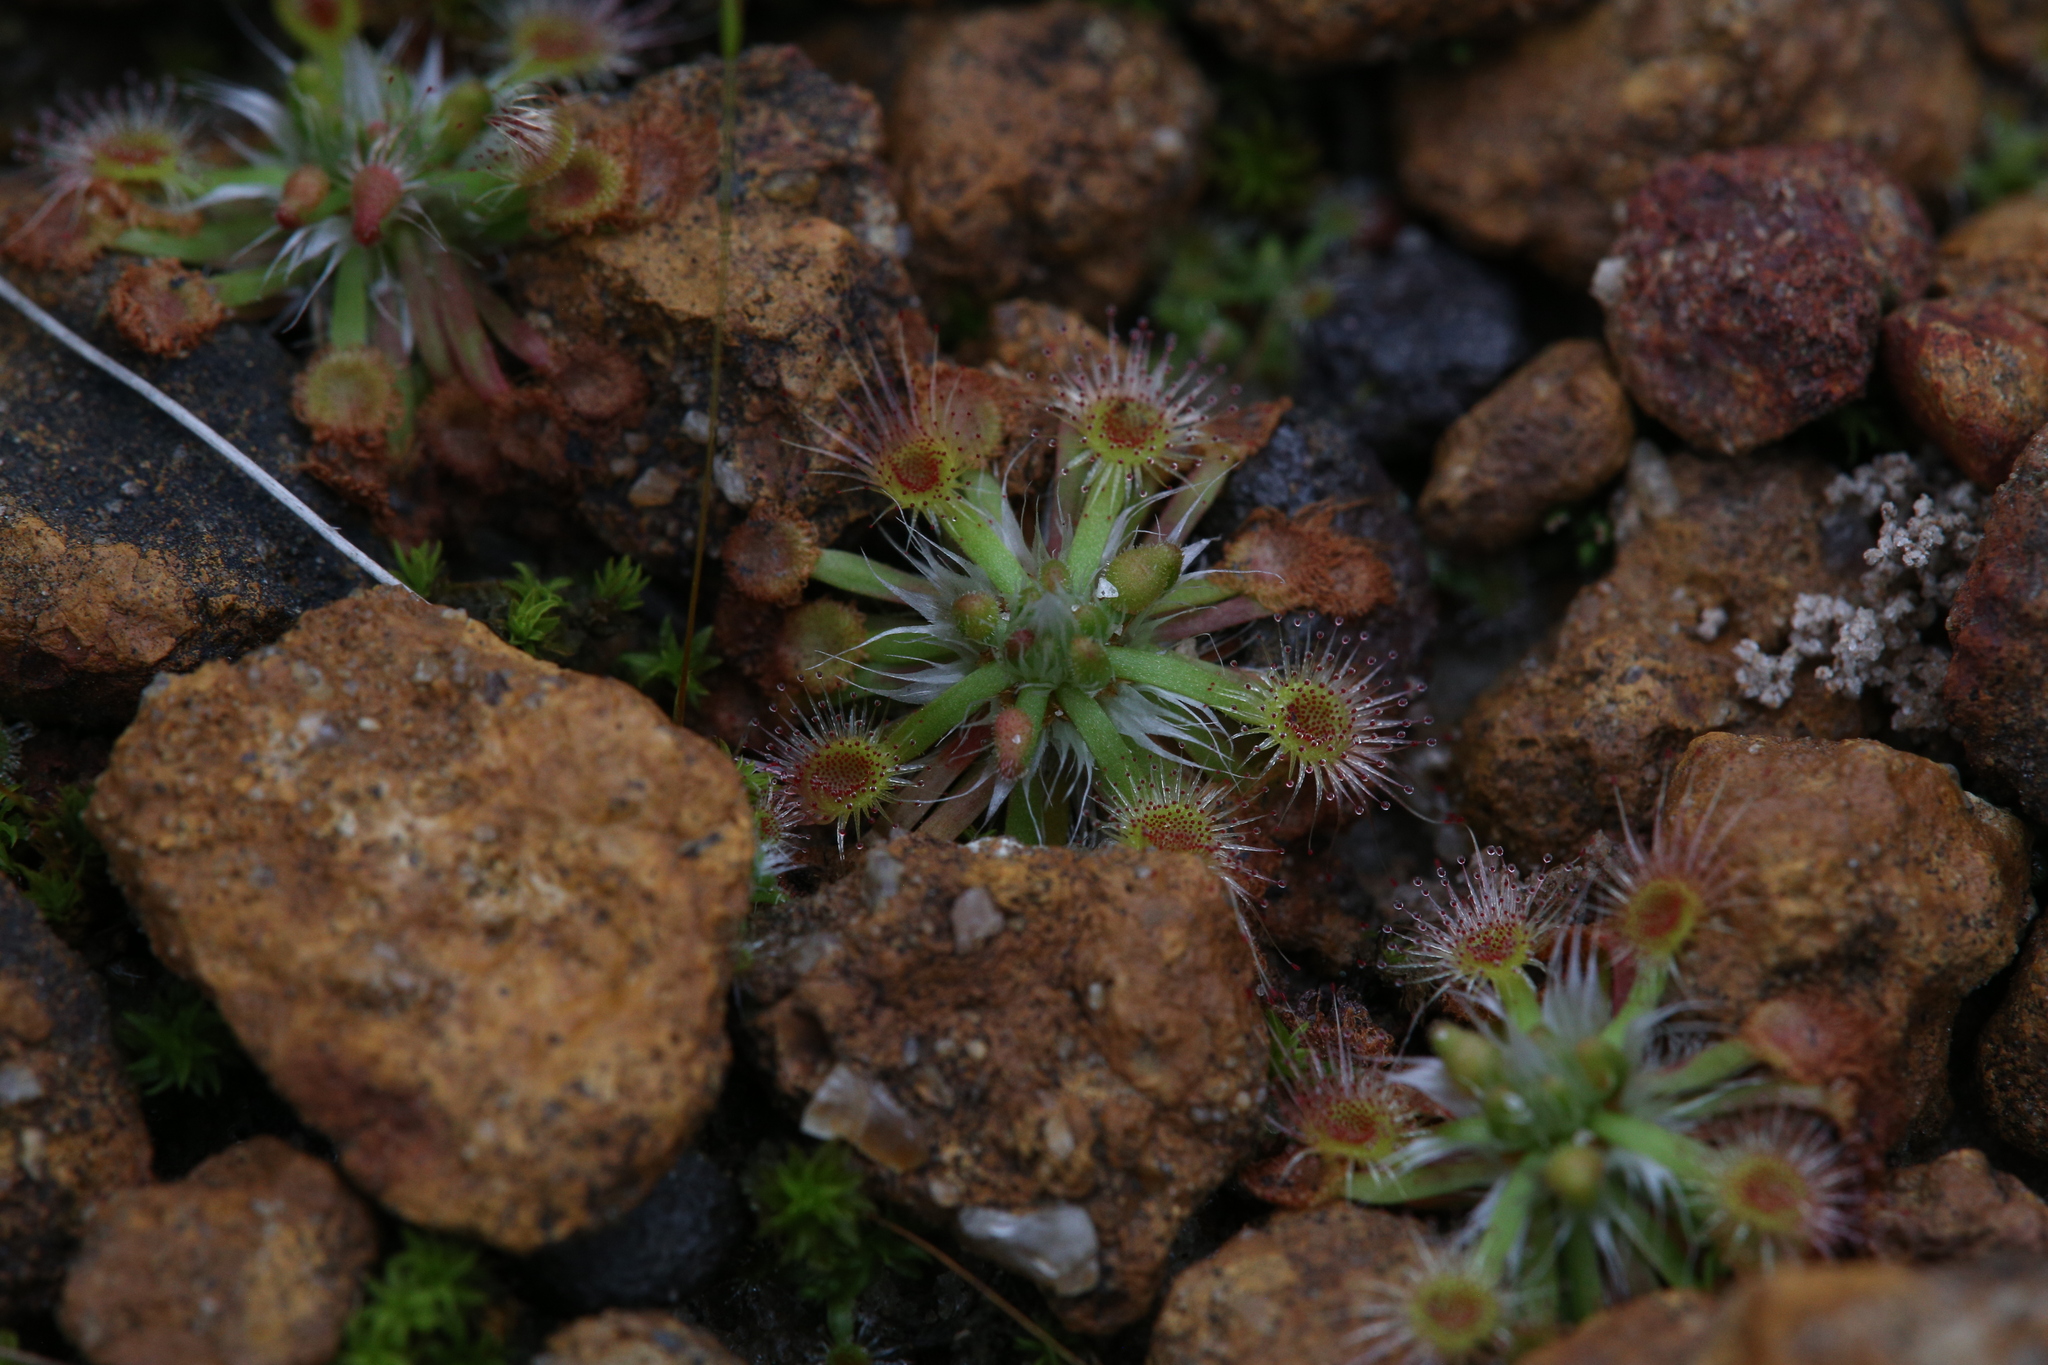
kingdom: Plantae
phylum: Tracheophyta
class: Magnoliopsida
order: Caryophyllales
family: Droseraceae
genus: Drosera
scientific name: Drosera spilos
